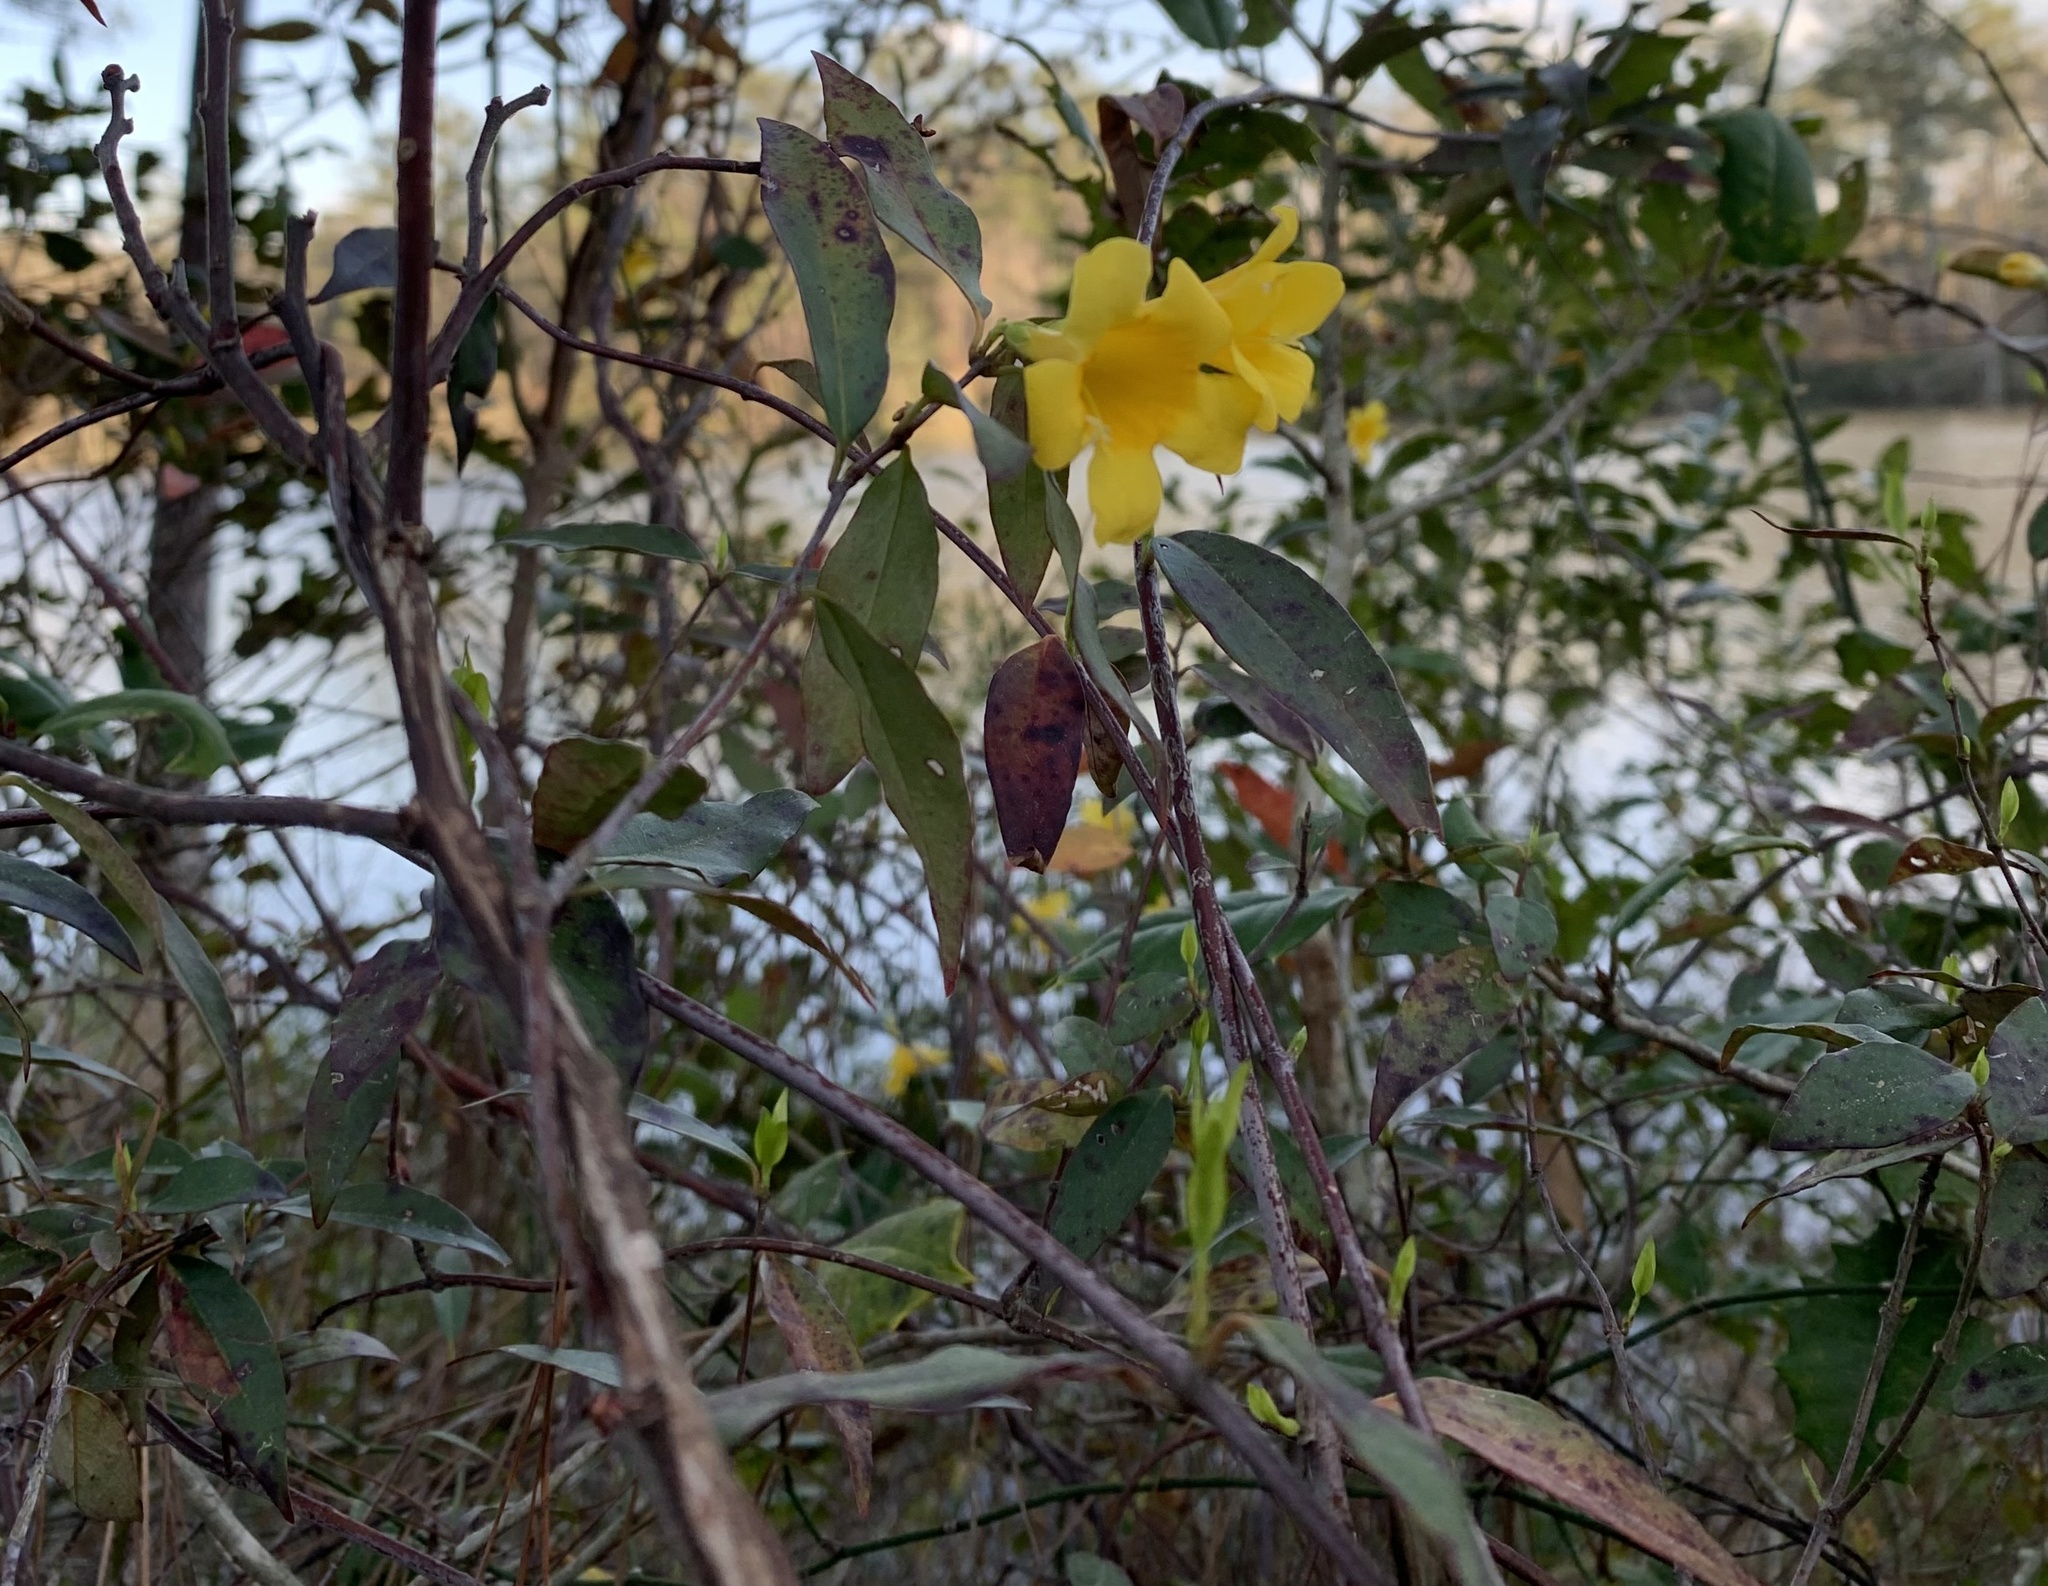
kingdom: Plantae
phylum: Tracheophyta
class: Magnoliopsida
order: Gentianales
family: Gelsemiaceae
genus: Gelsemium
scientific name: Gelsemium sempervirens
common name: Carolina-jasmine
